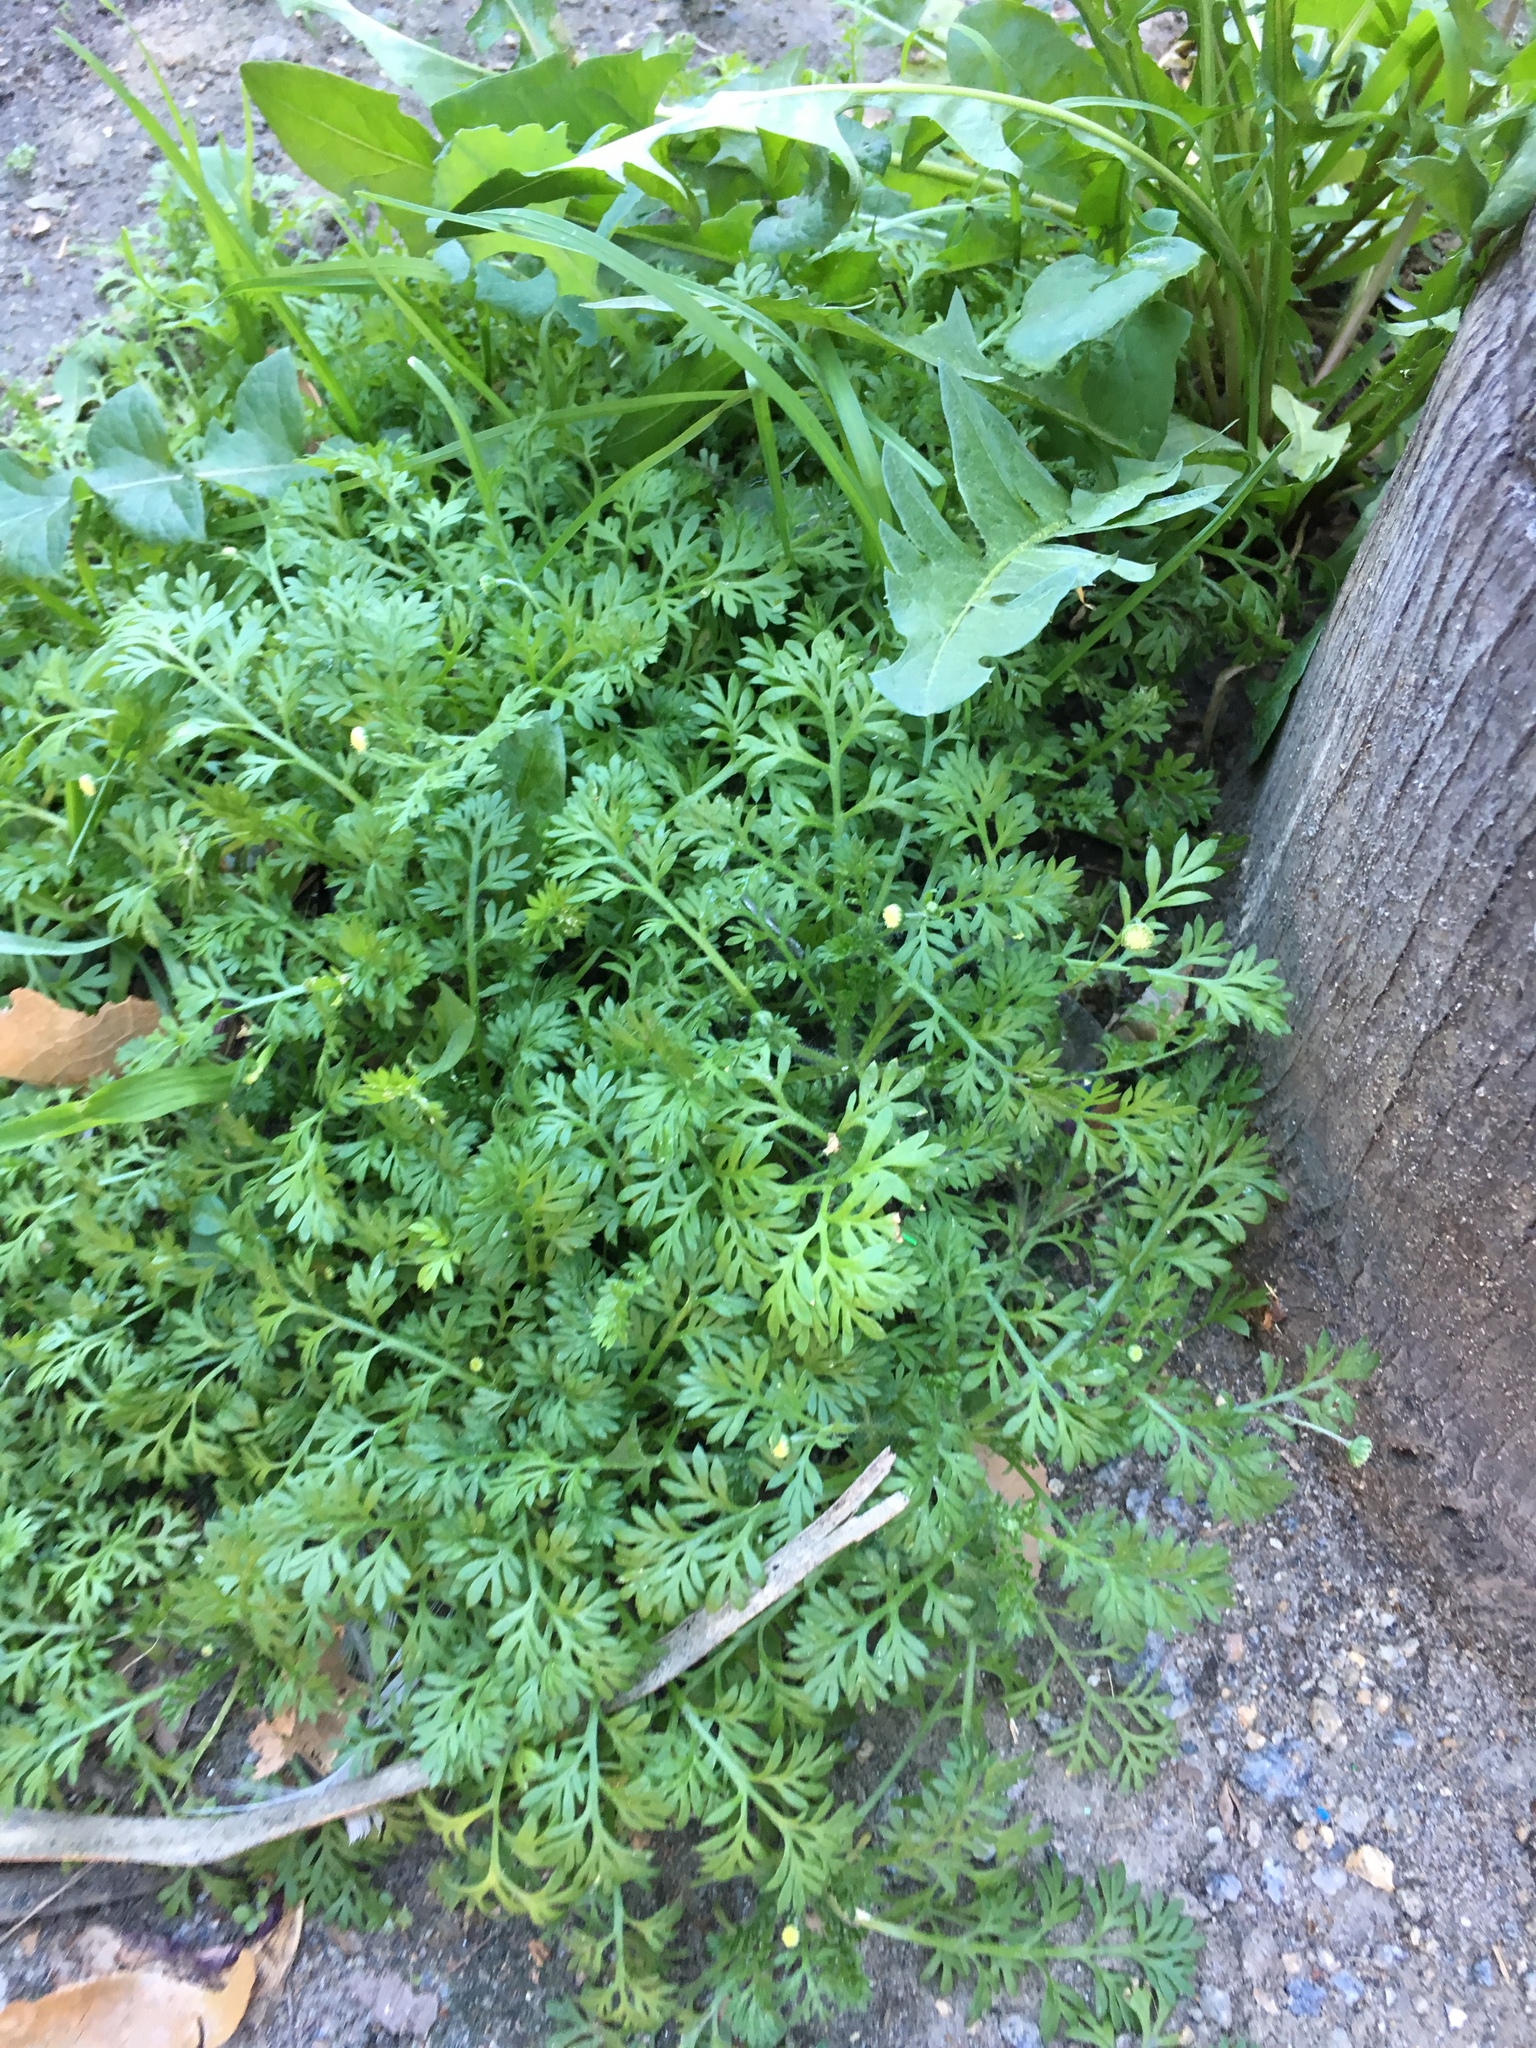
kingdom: Plantae
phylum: Tracheophyta
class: Magnoliopsida
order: Asterales
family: Asteraceae
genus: Cotula
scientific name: Cotula australis
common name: Australian waterbuttons
